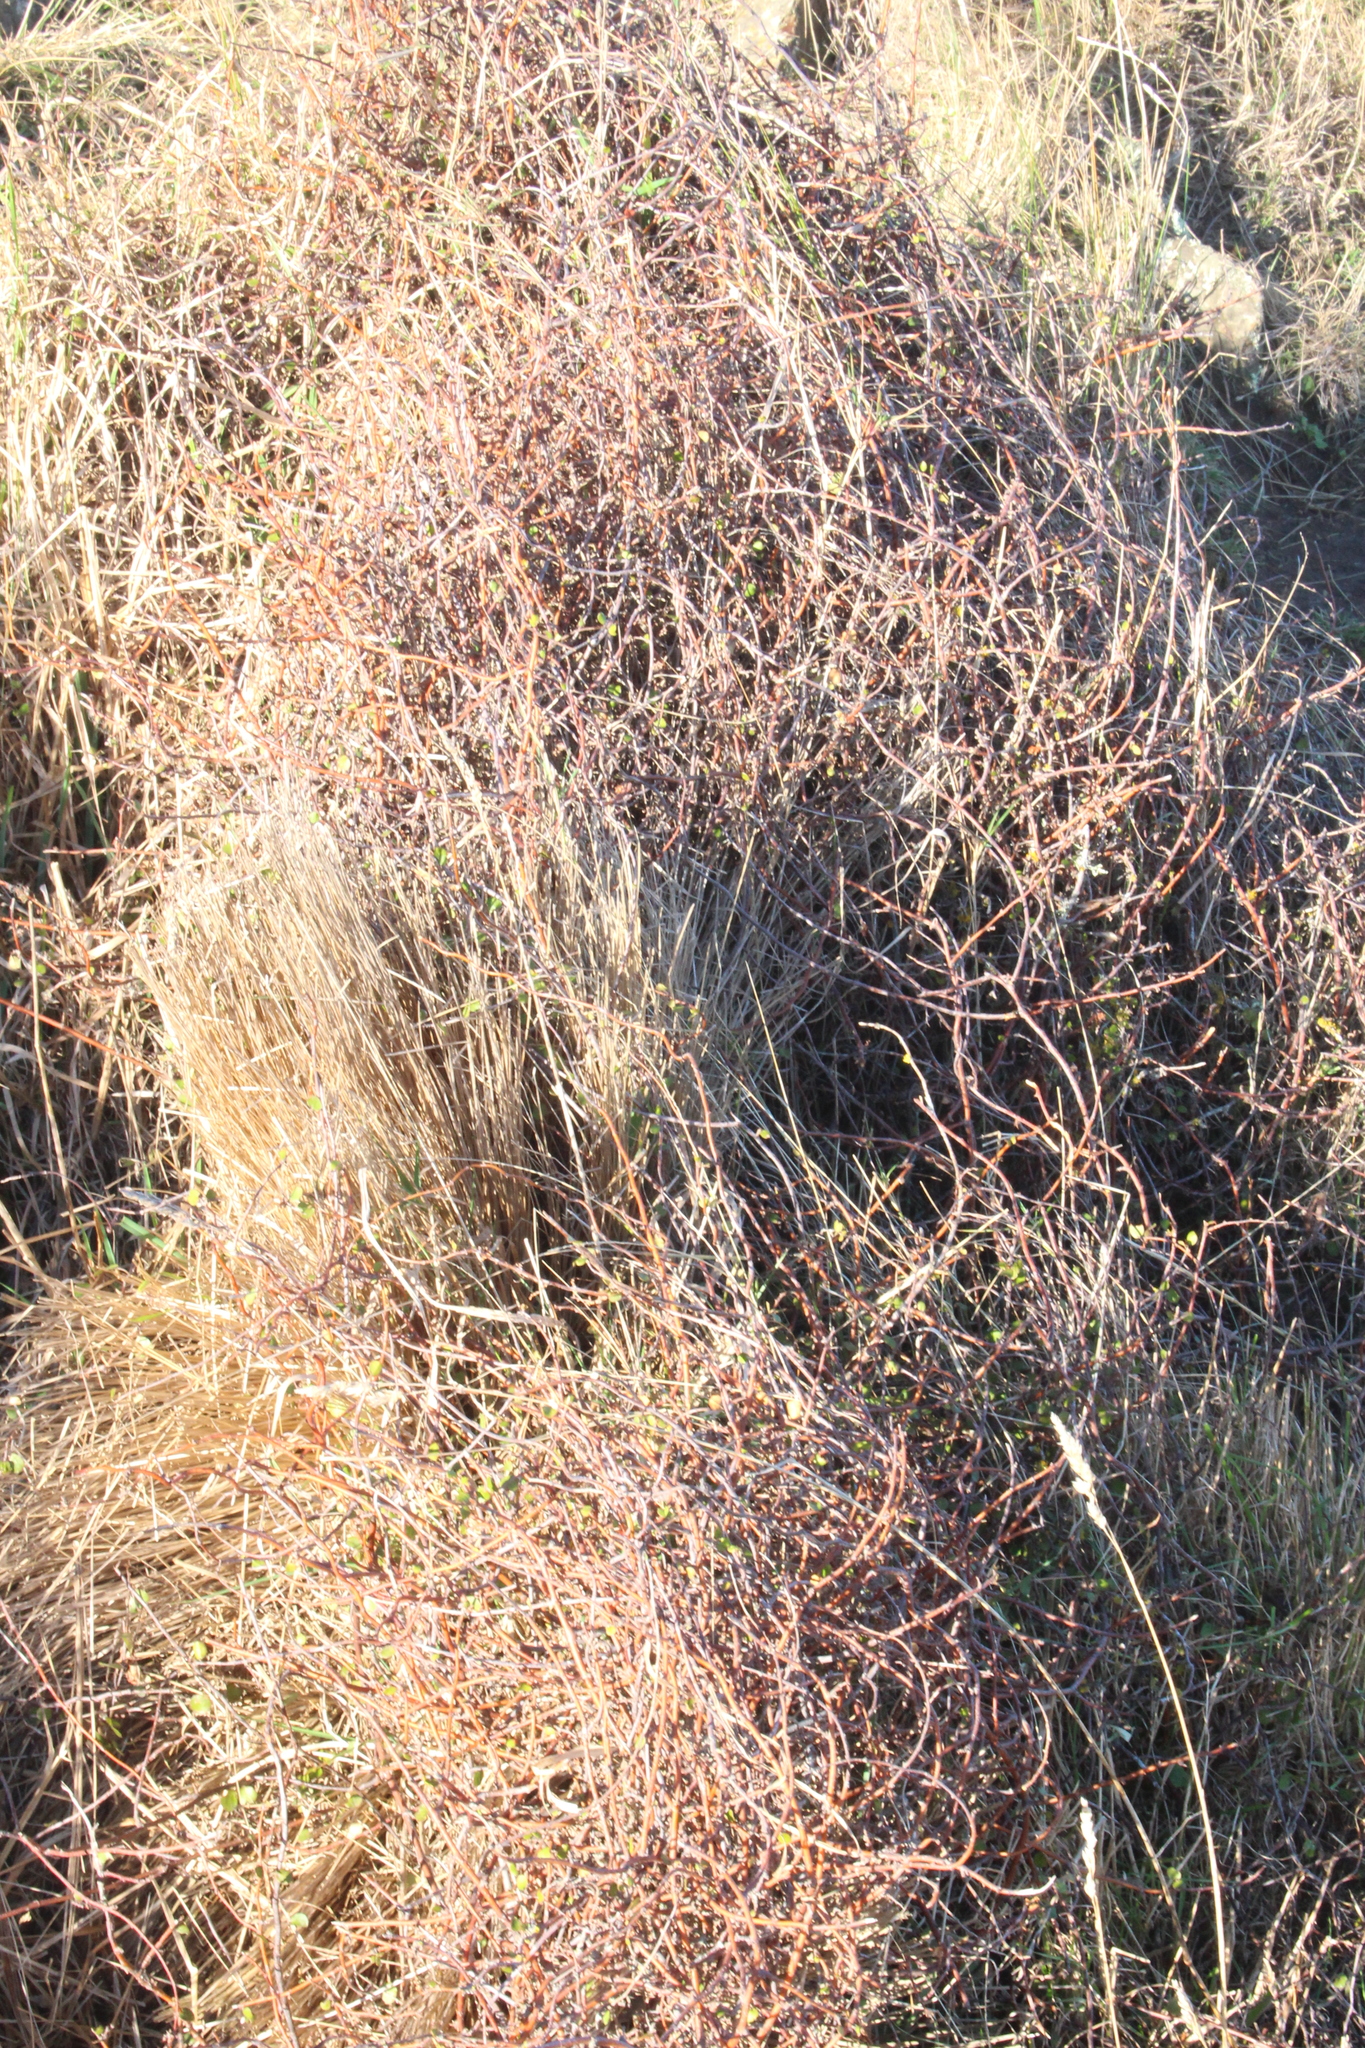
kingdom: Plantae
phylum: Tracheophyta
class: Magnoliopsida
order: Caryophyllales
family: Polygonaceae
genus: Muehlenbeckia
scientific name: Muehlenbeckia complexa
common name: Wireplant
